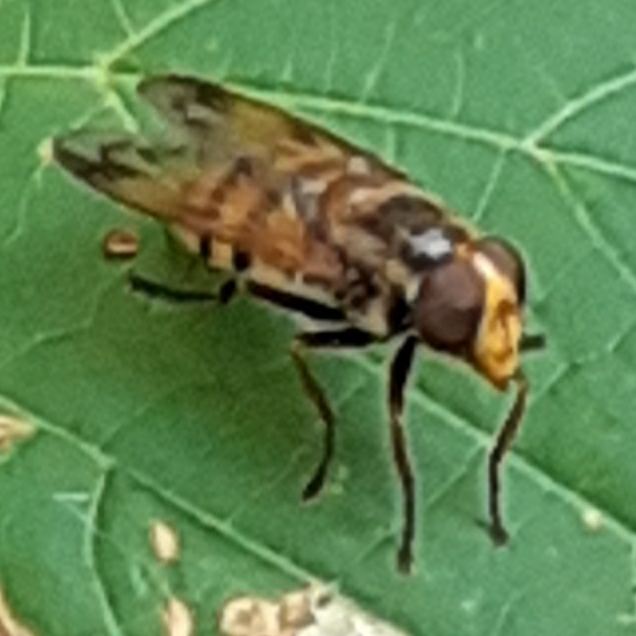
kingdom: Animalia
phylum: Arthropoda
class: Insecta
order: Diptera
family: Syrphidae
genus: Volucella
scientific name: Volucella inanis
